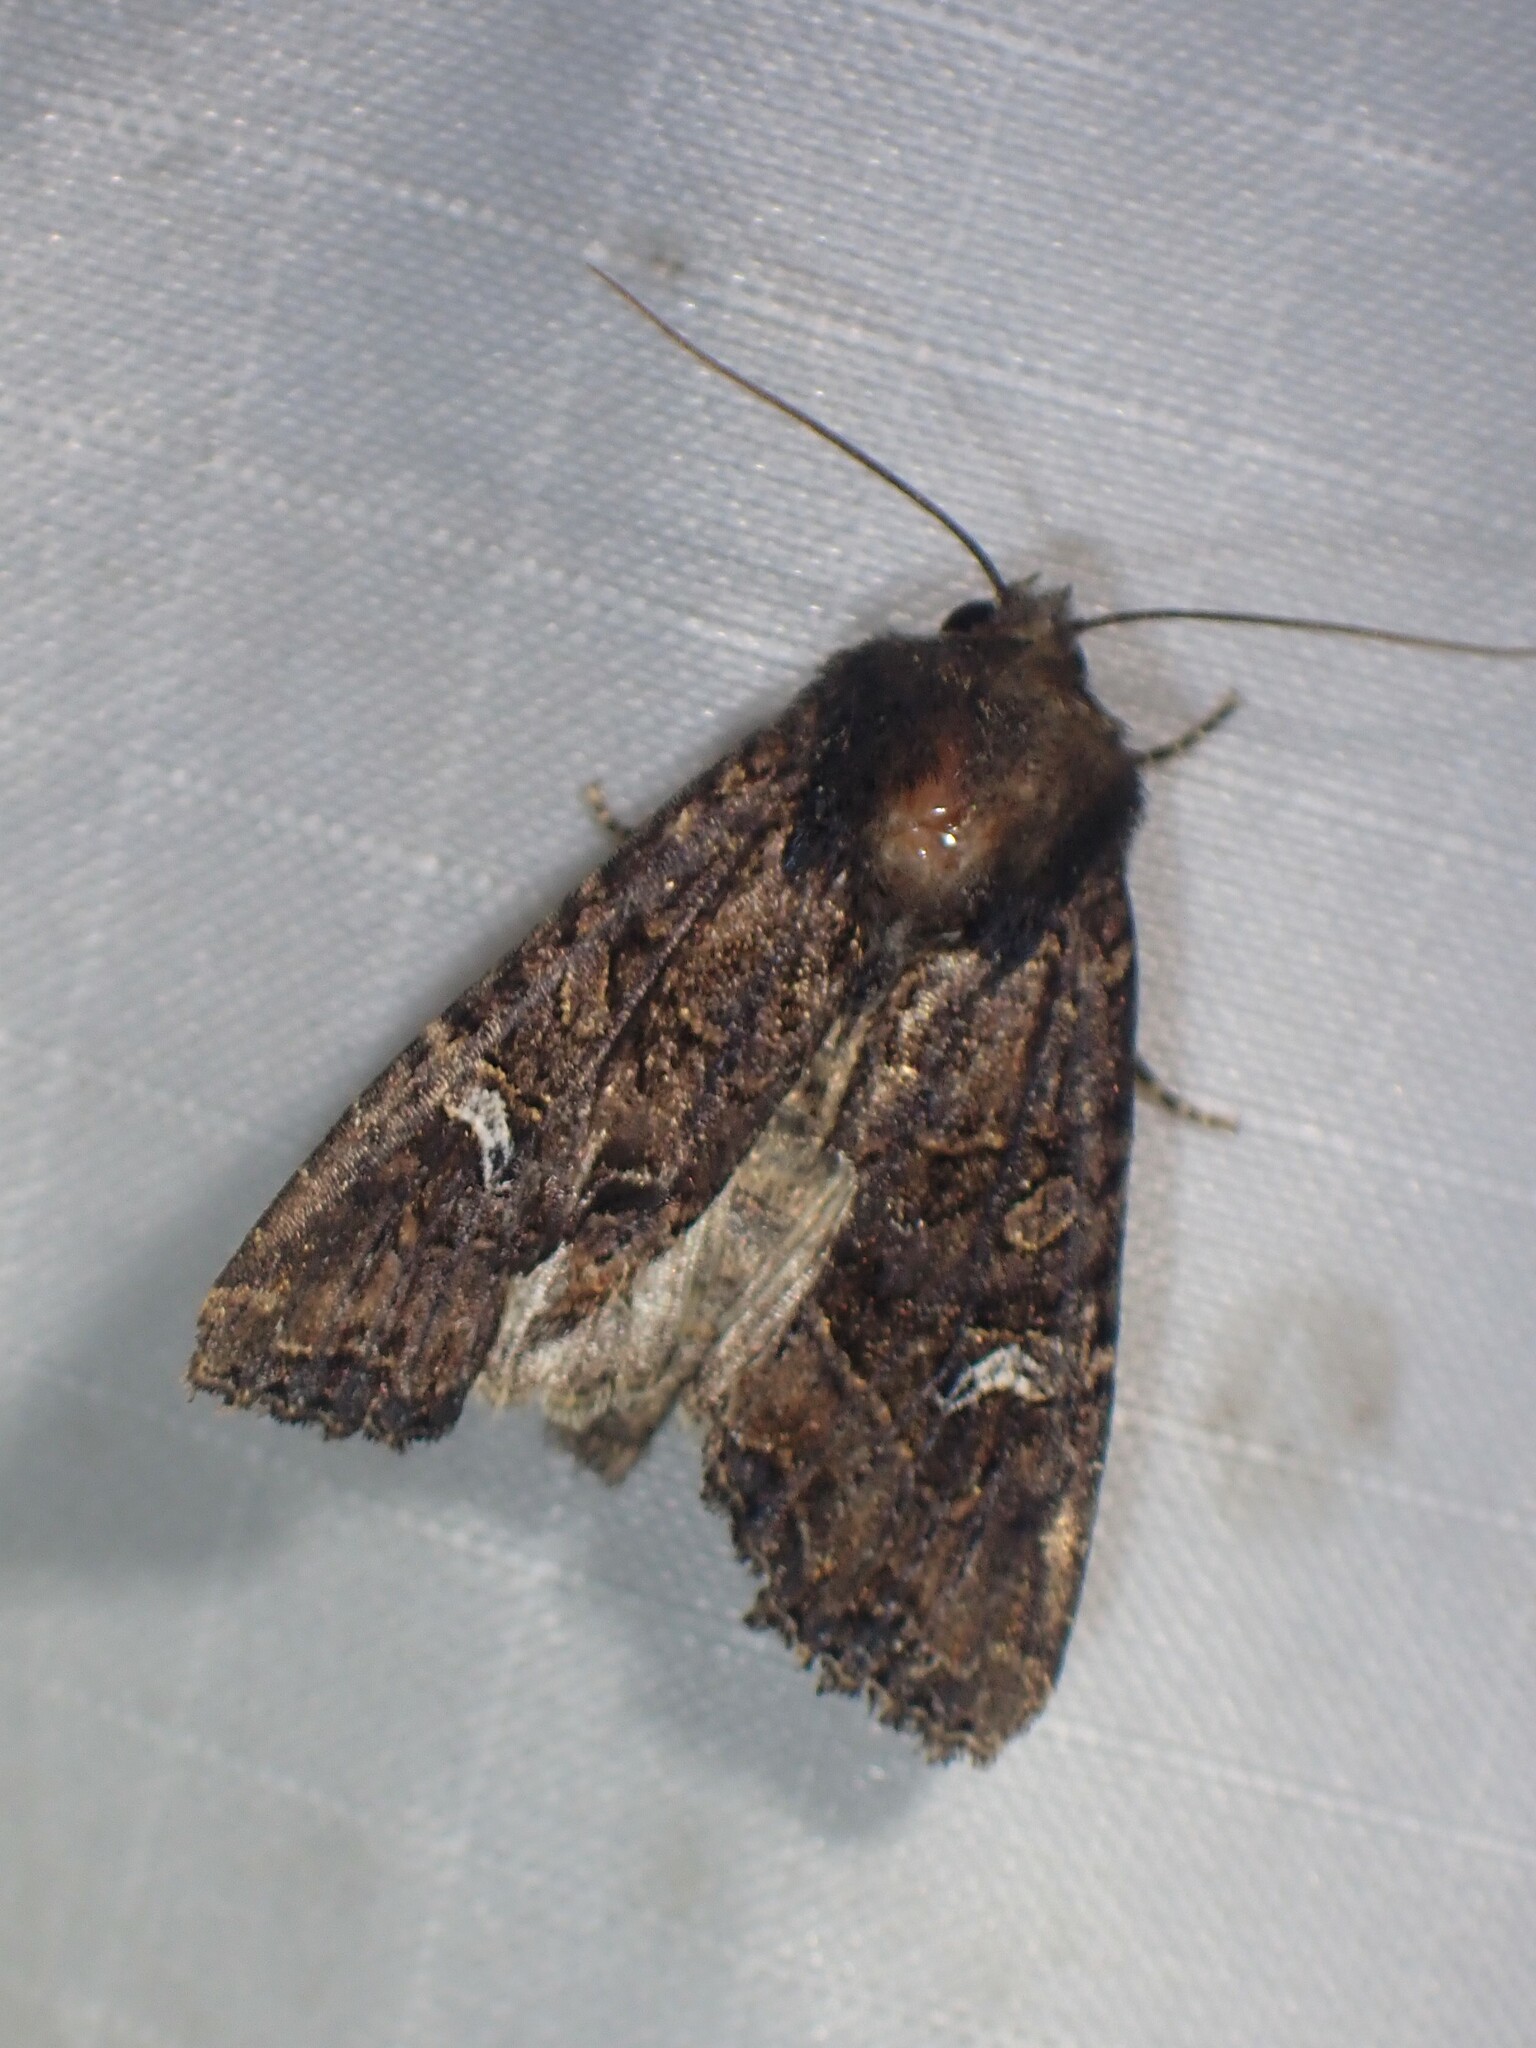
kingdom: Animalia
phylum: Arthropoda
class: Insecta
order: Lepidoptera
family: Noctuidae
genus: Helotropha
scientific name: Helotropha reniformis
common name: Kidney-spotted rustic moth
